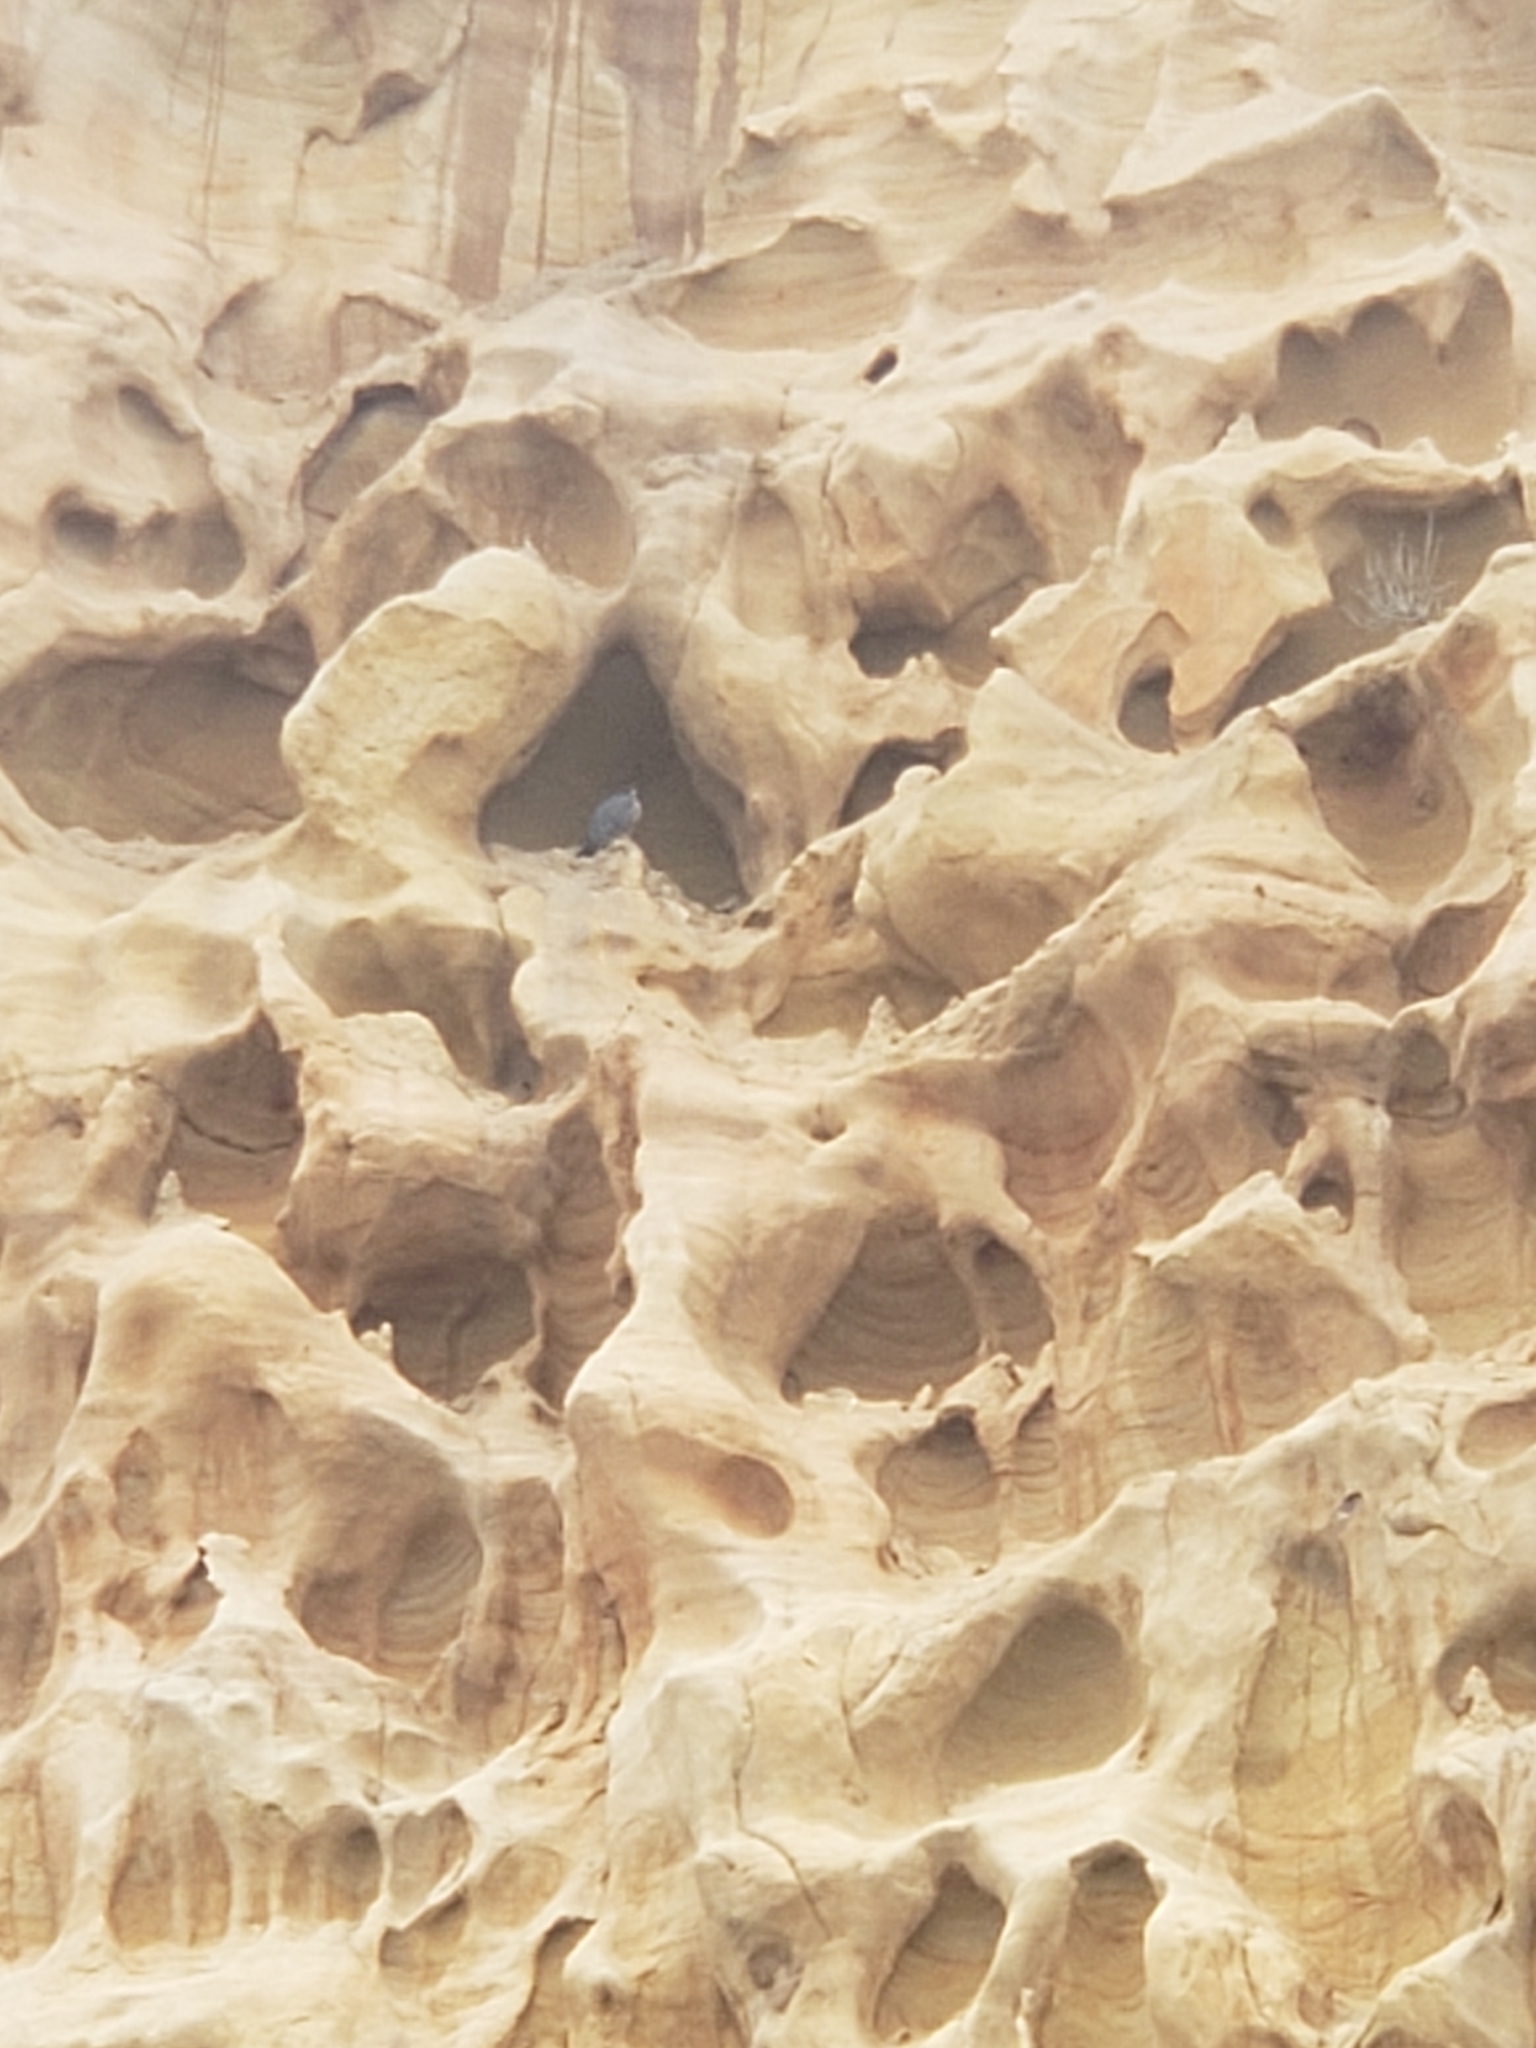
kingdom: Animalia
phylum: Chordata
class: Aves
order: Falconiformes
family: Falconidae
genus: Falco
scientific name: Falco peregrinus
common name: Peregrine falcon
